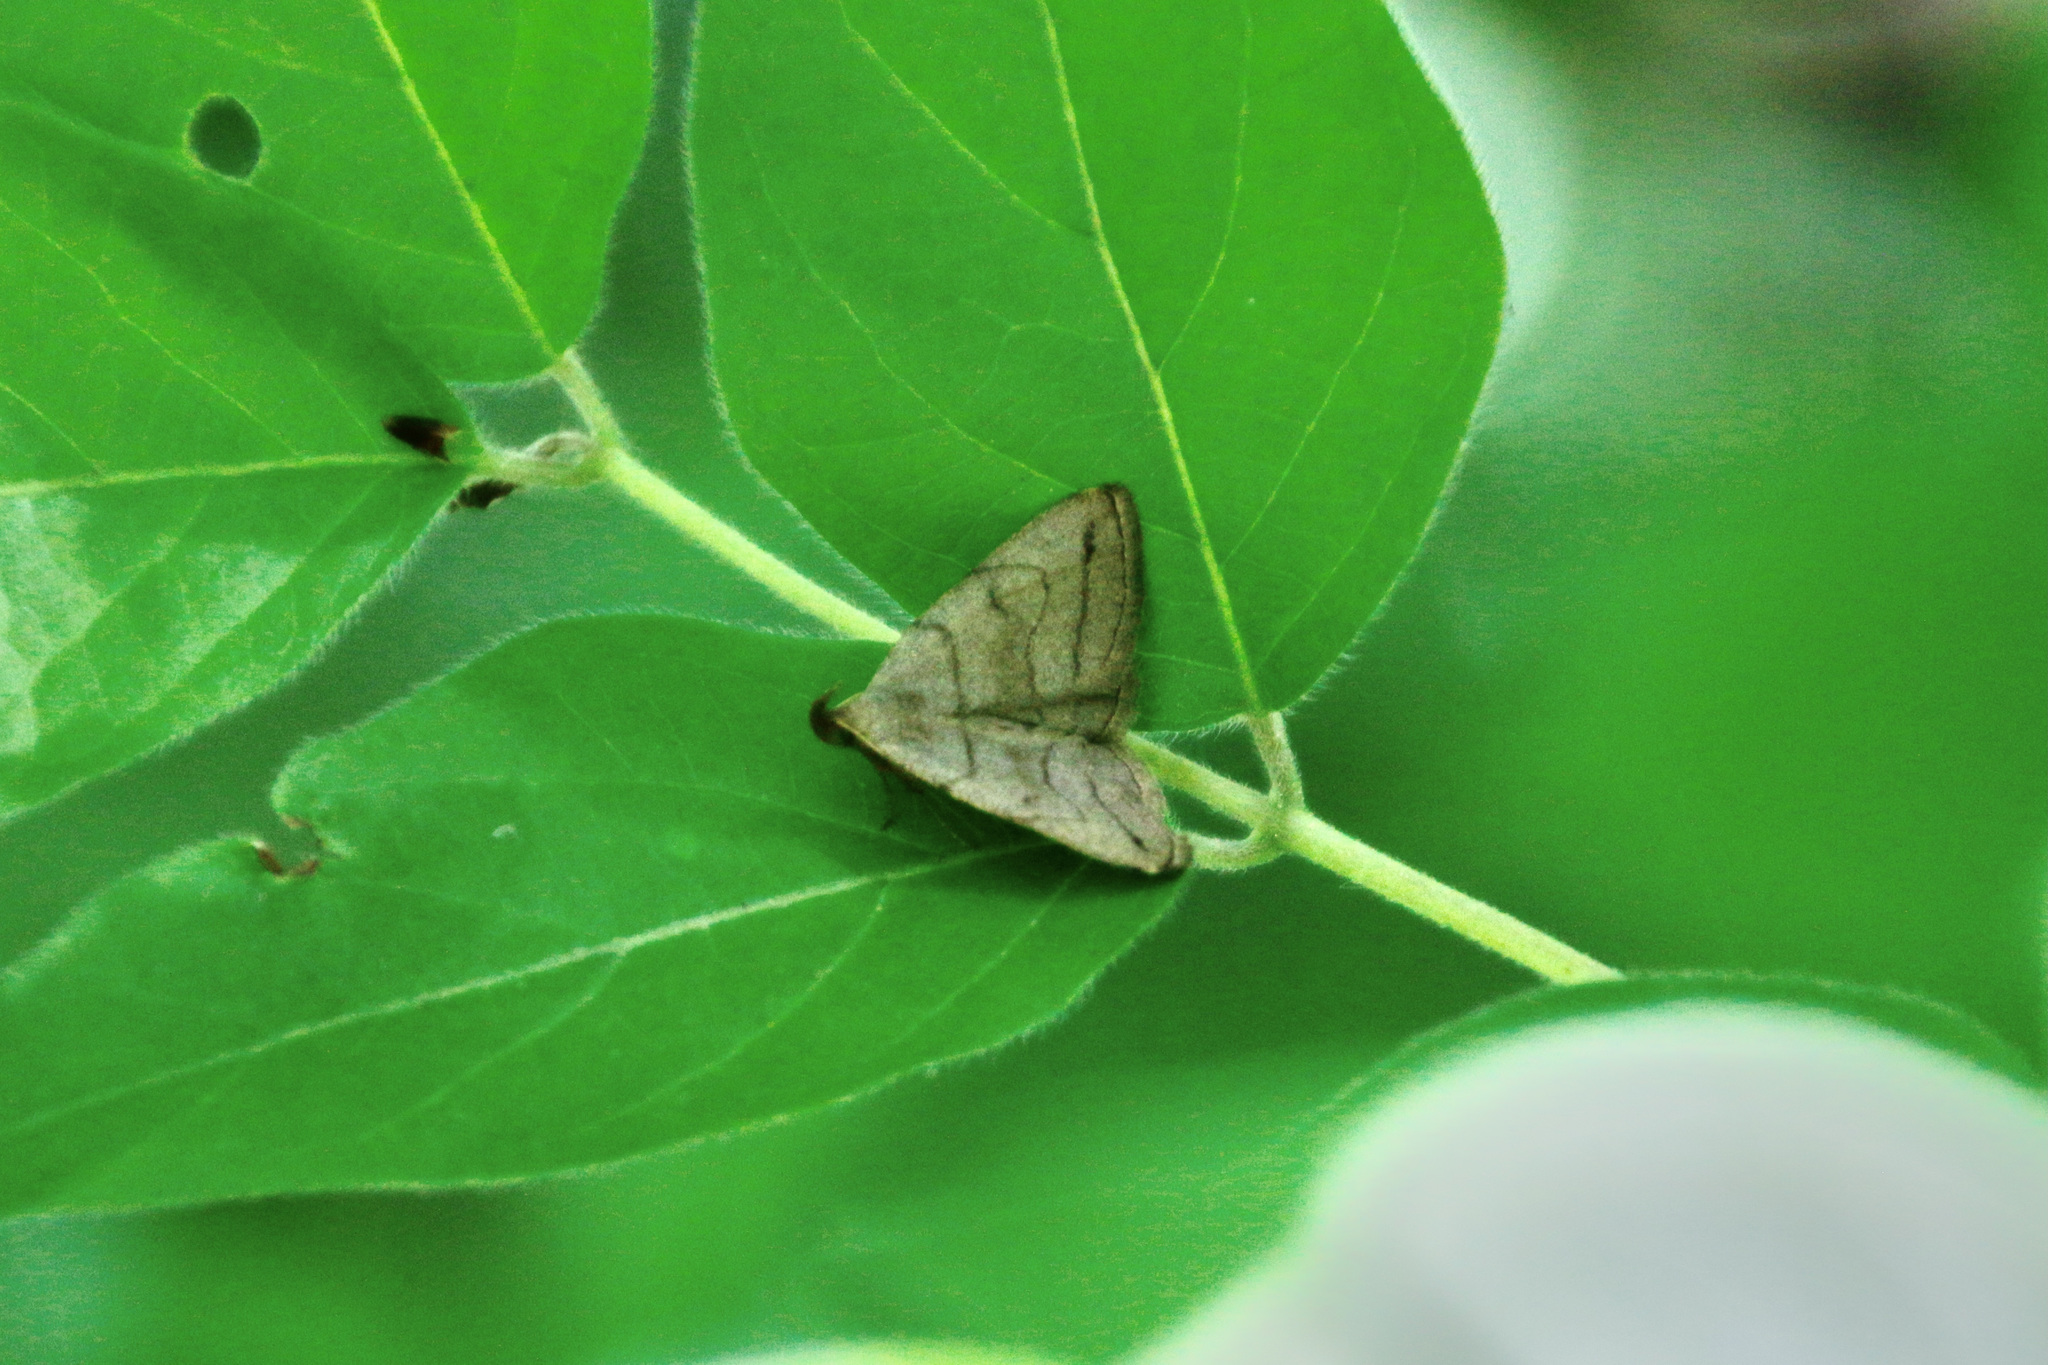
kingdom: Animalia
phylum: Arthropoda
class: Insecta
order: Lepidoptera
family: Erebidae
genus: Zanclognatha
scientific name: Zanclognatha pedipilalis
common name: Grayish fan-foot
